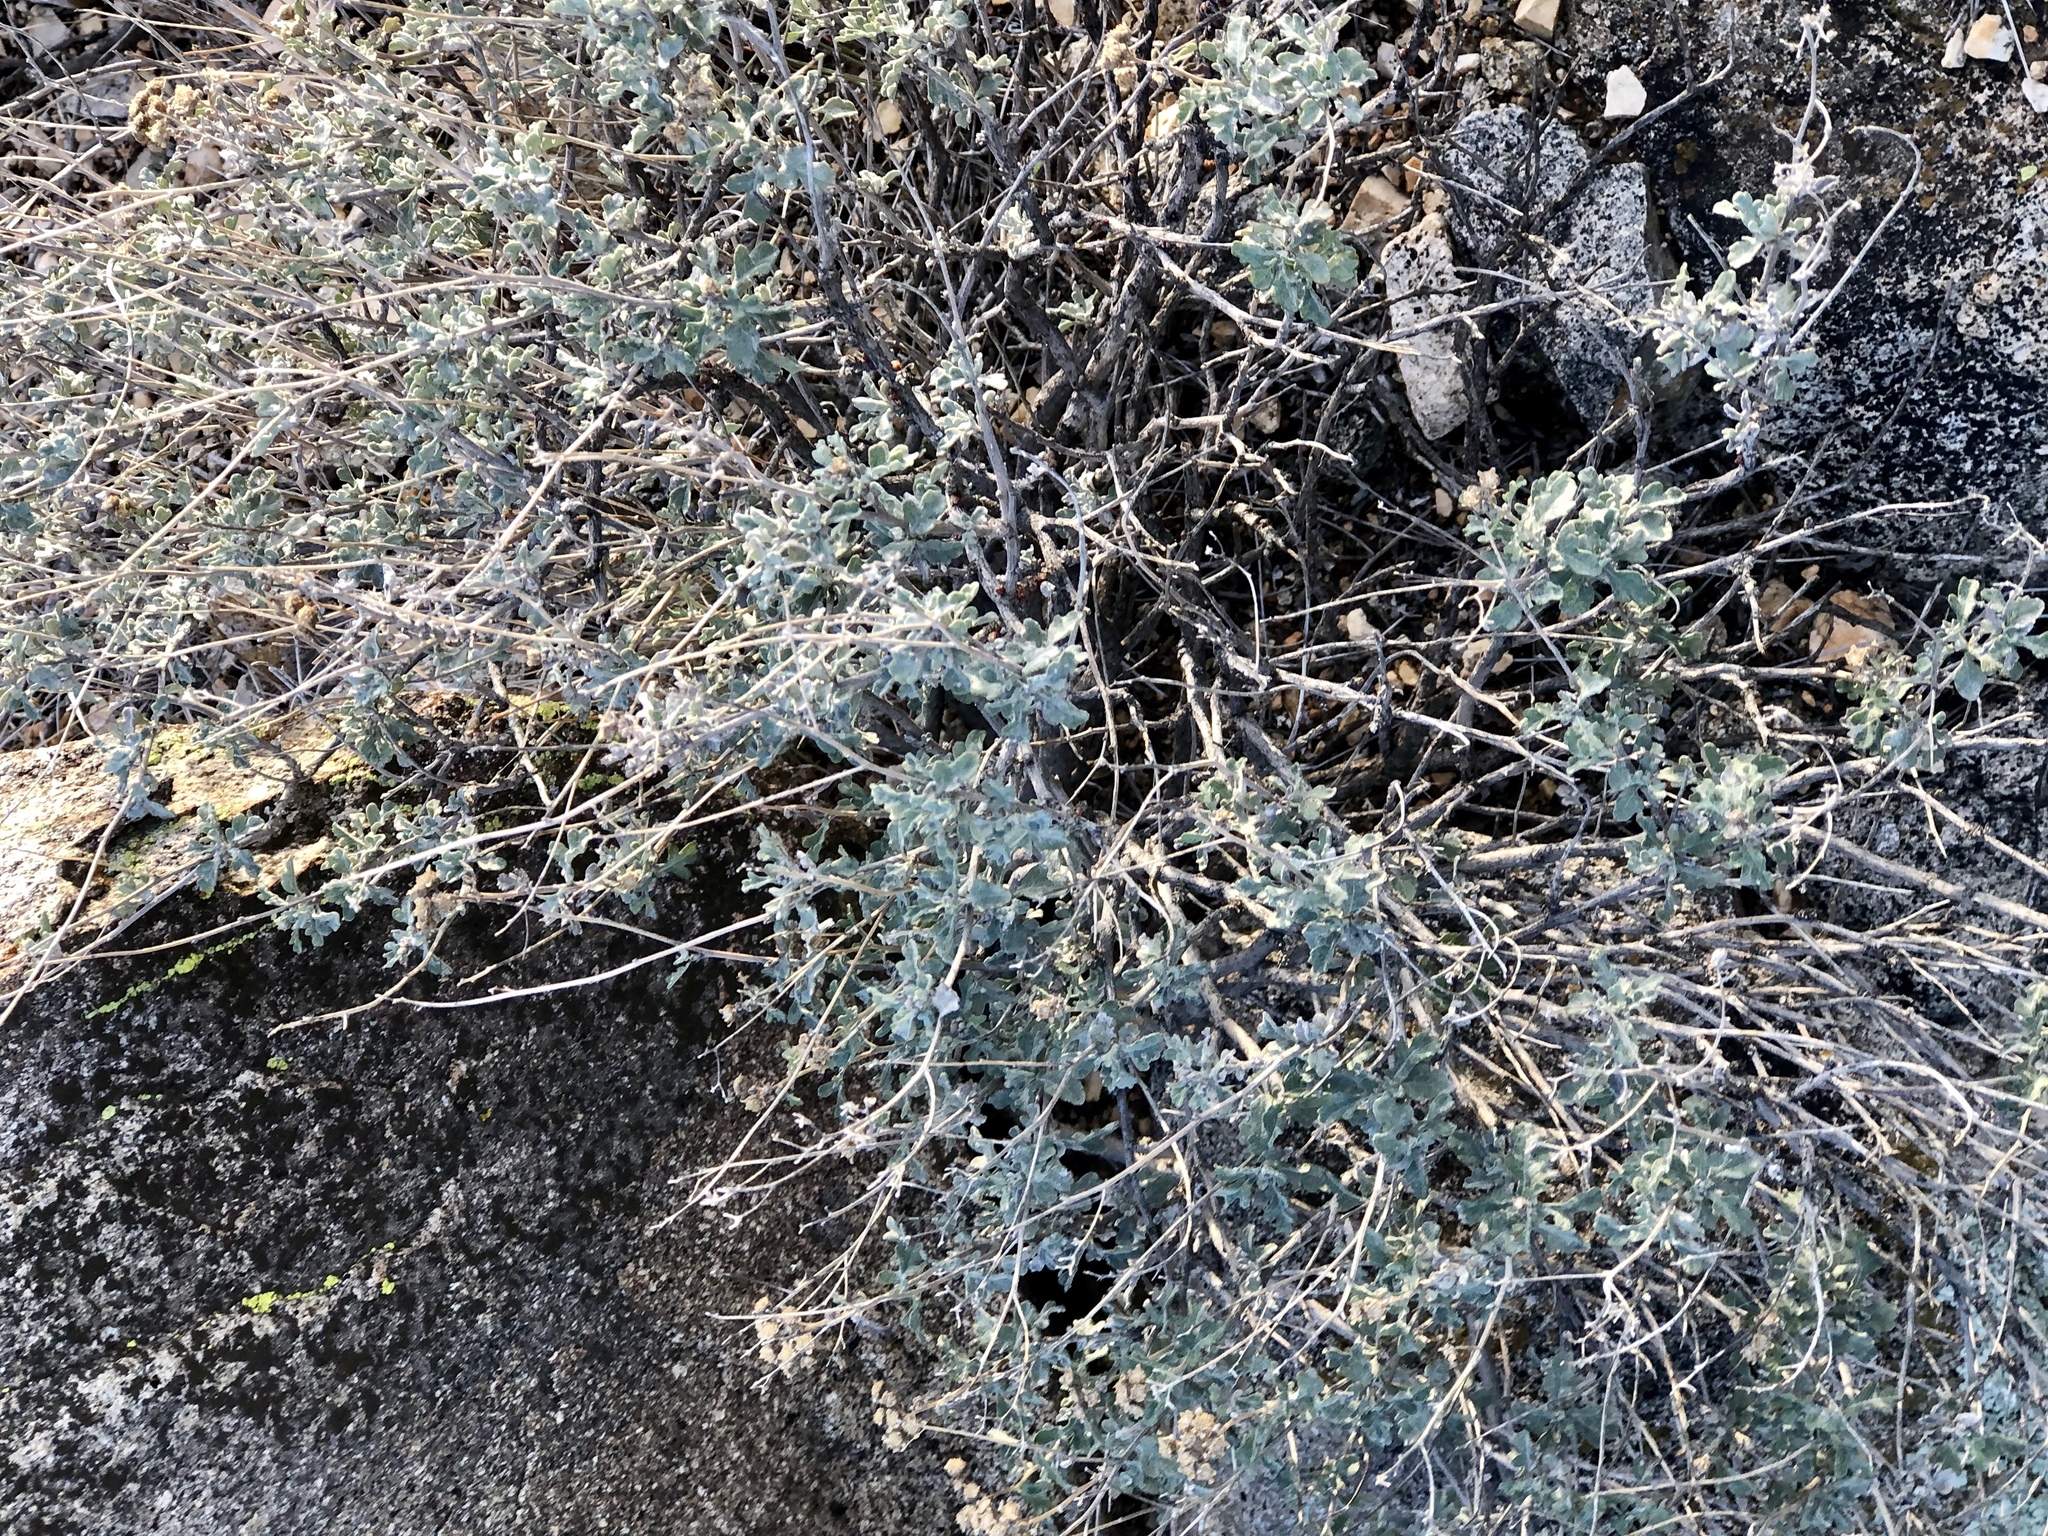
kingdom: Plantae
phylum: Tracheophyta
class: Magnoliopsida
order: Asterales
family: Asteraceae
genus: Parthenium
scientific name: Parthenium incanum
